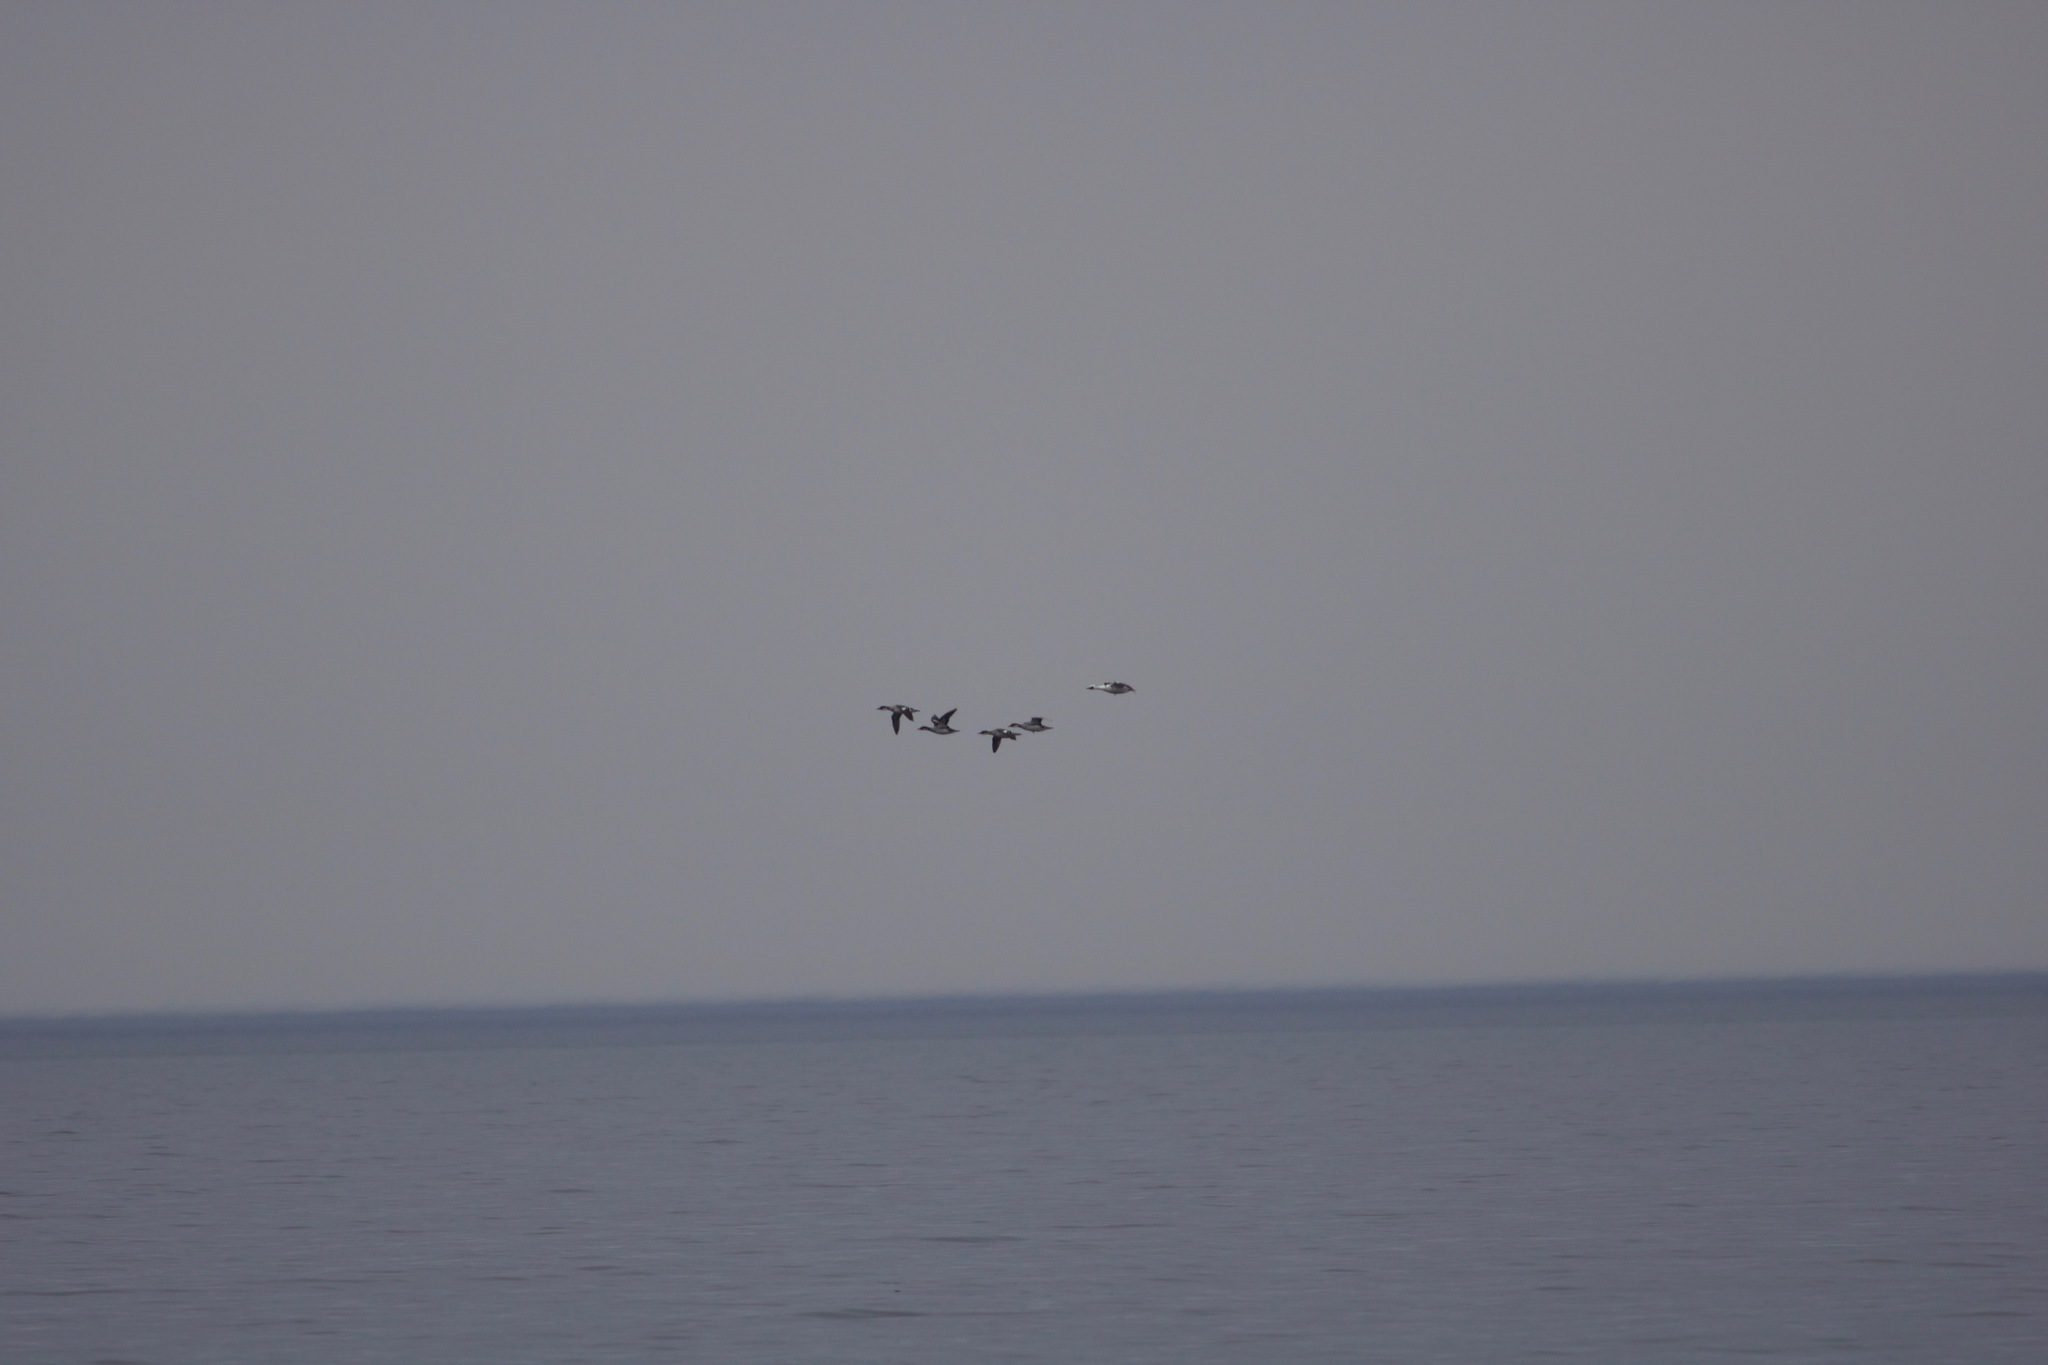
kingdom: Animalia
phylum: Chordata
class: Aves
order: Anseriformes
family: Anatidae
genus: Mergellus
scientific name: Mergellus albellus
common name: Smew
